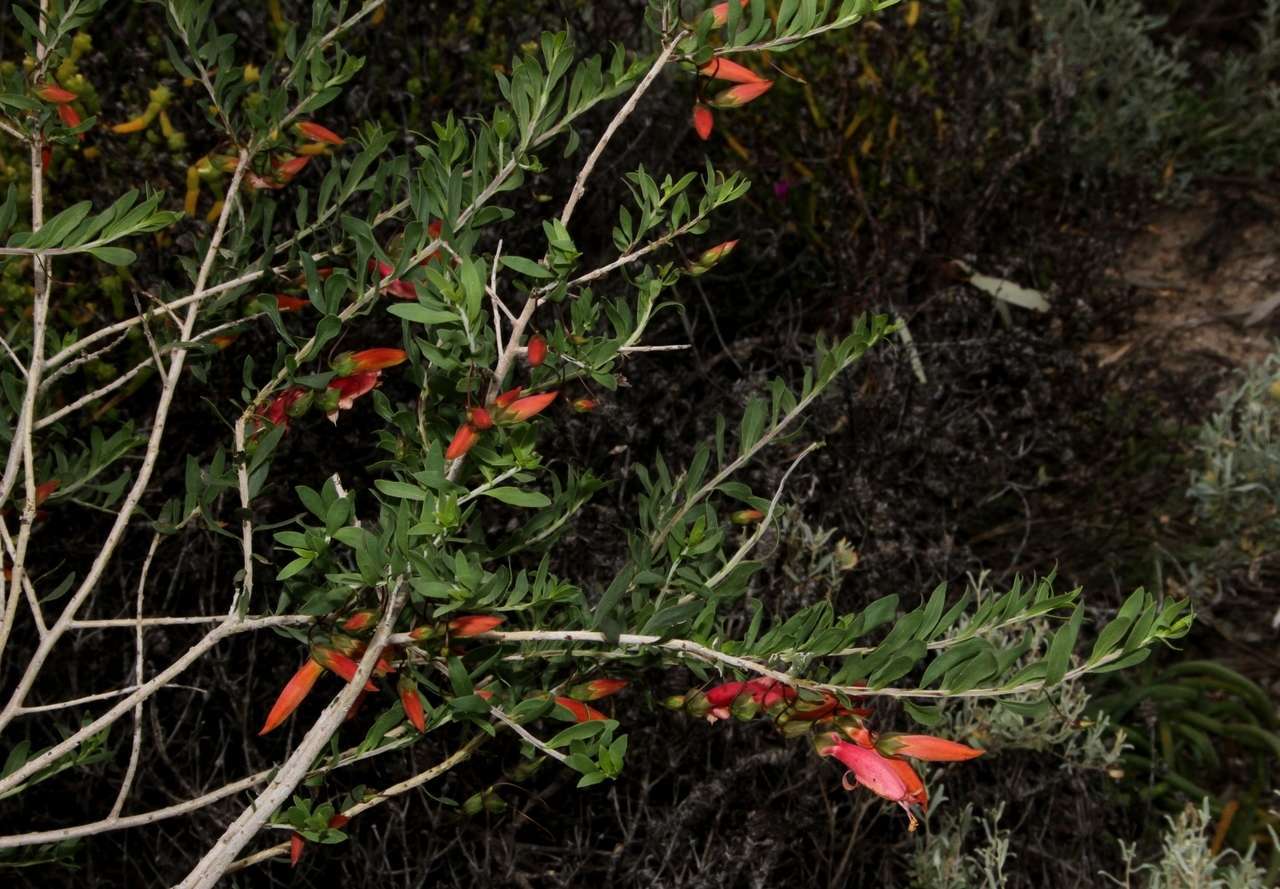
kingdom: Plantae
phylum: Tracheophyta
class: Magnoliopsida
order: Lamiales
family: Scrophulariaceae
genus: Eremophila
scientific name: Eremophila maculata
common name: Fuchsiabush
